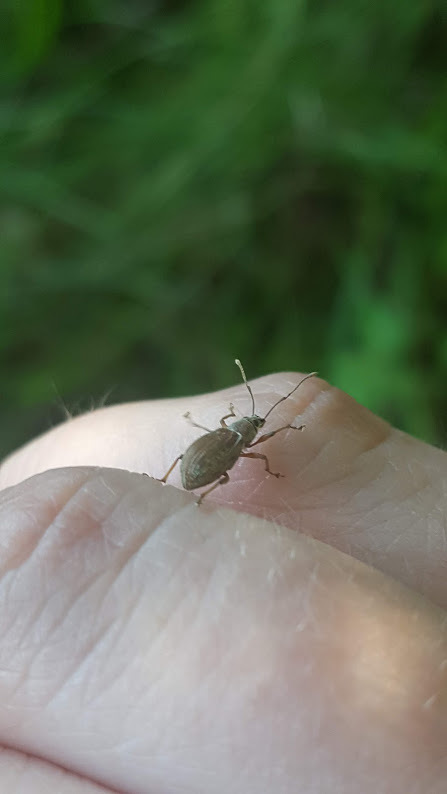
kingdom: Animalia
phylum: Arthropoda
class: Insecta
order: Coleoptera
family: Curculionidae
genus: Cyrtepistomus
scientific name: Cyrtepistomus castaneus
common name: Weevil
